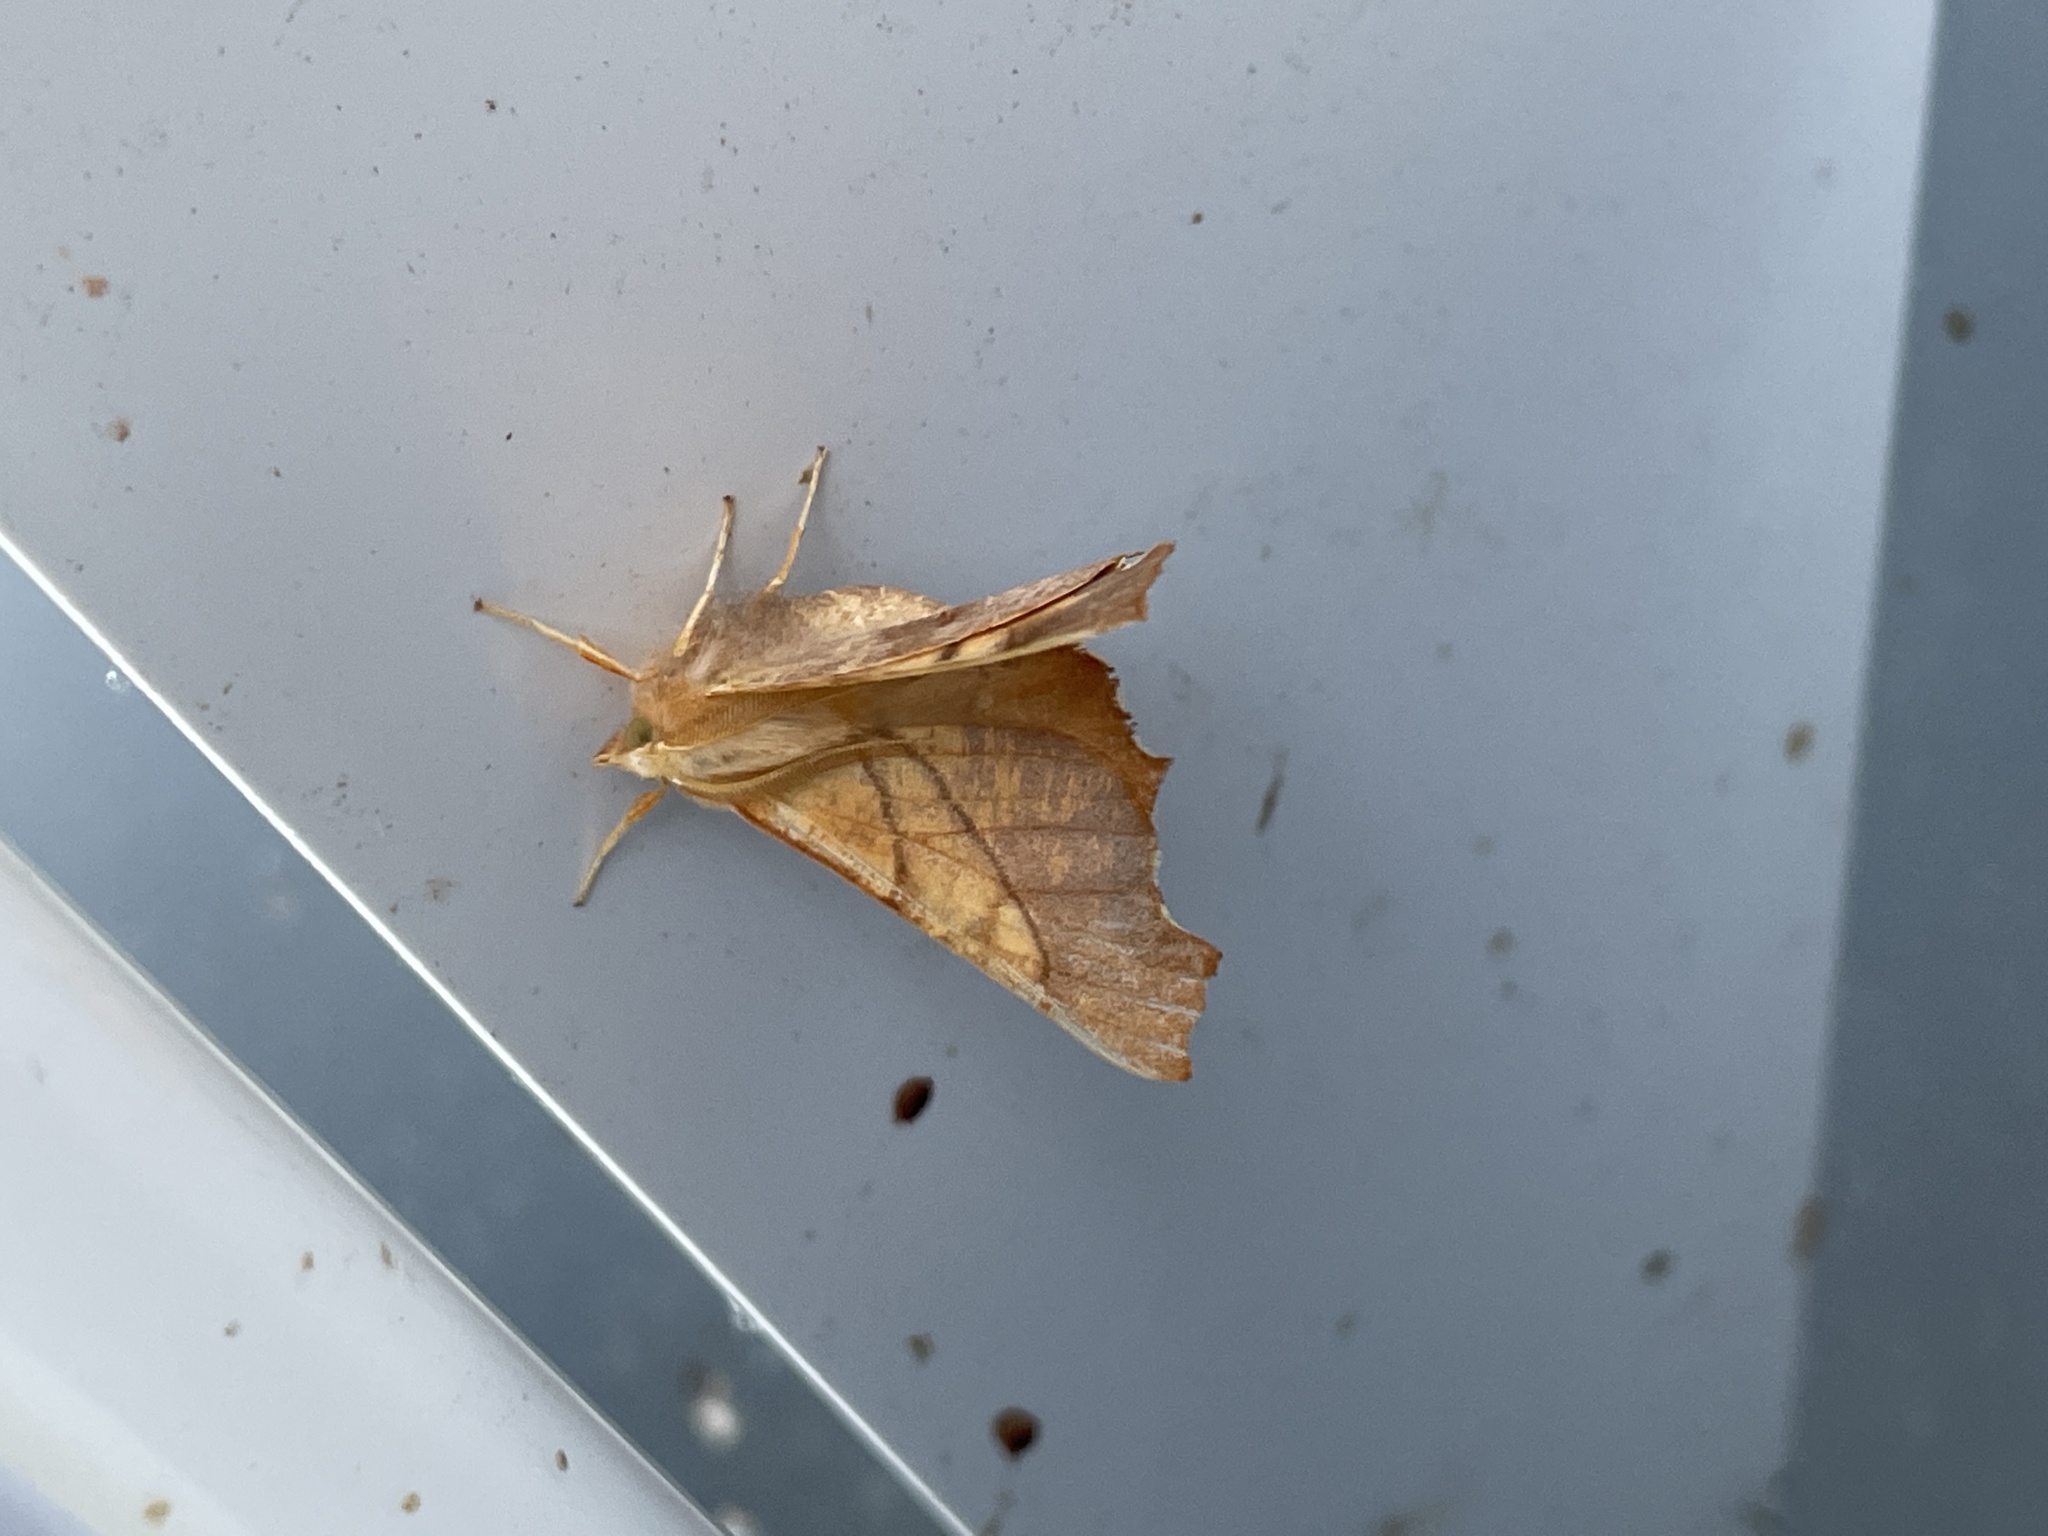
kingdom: Animalia
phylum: Arthropoda
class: Insecta
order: Lepidoptera
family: Geometridae
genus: Ennomos
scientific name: Ennomos fuscantaria
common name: Dusky thorn
